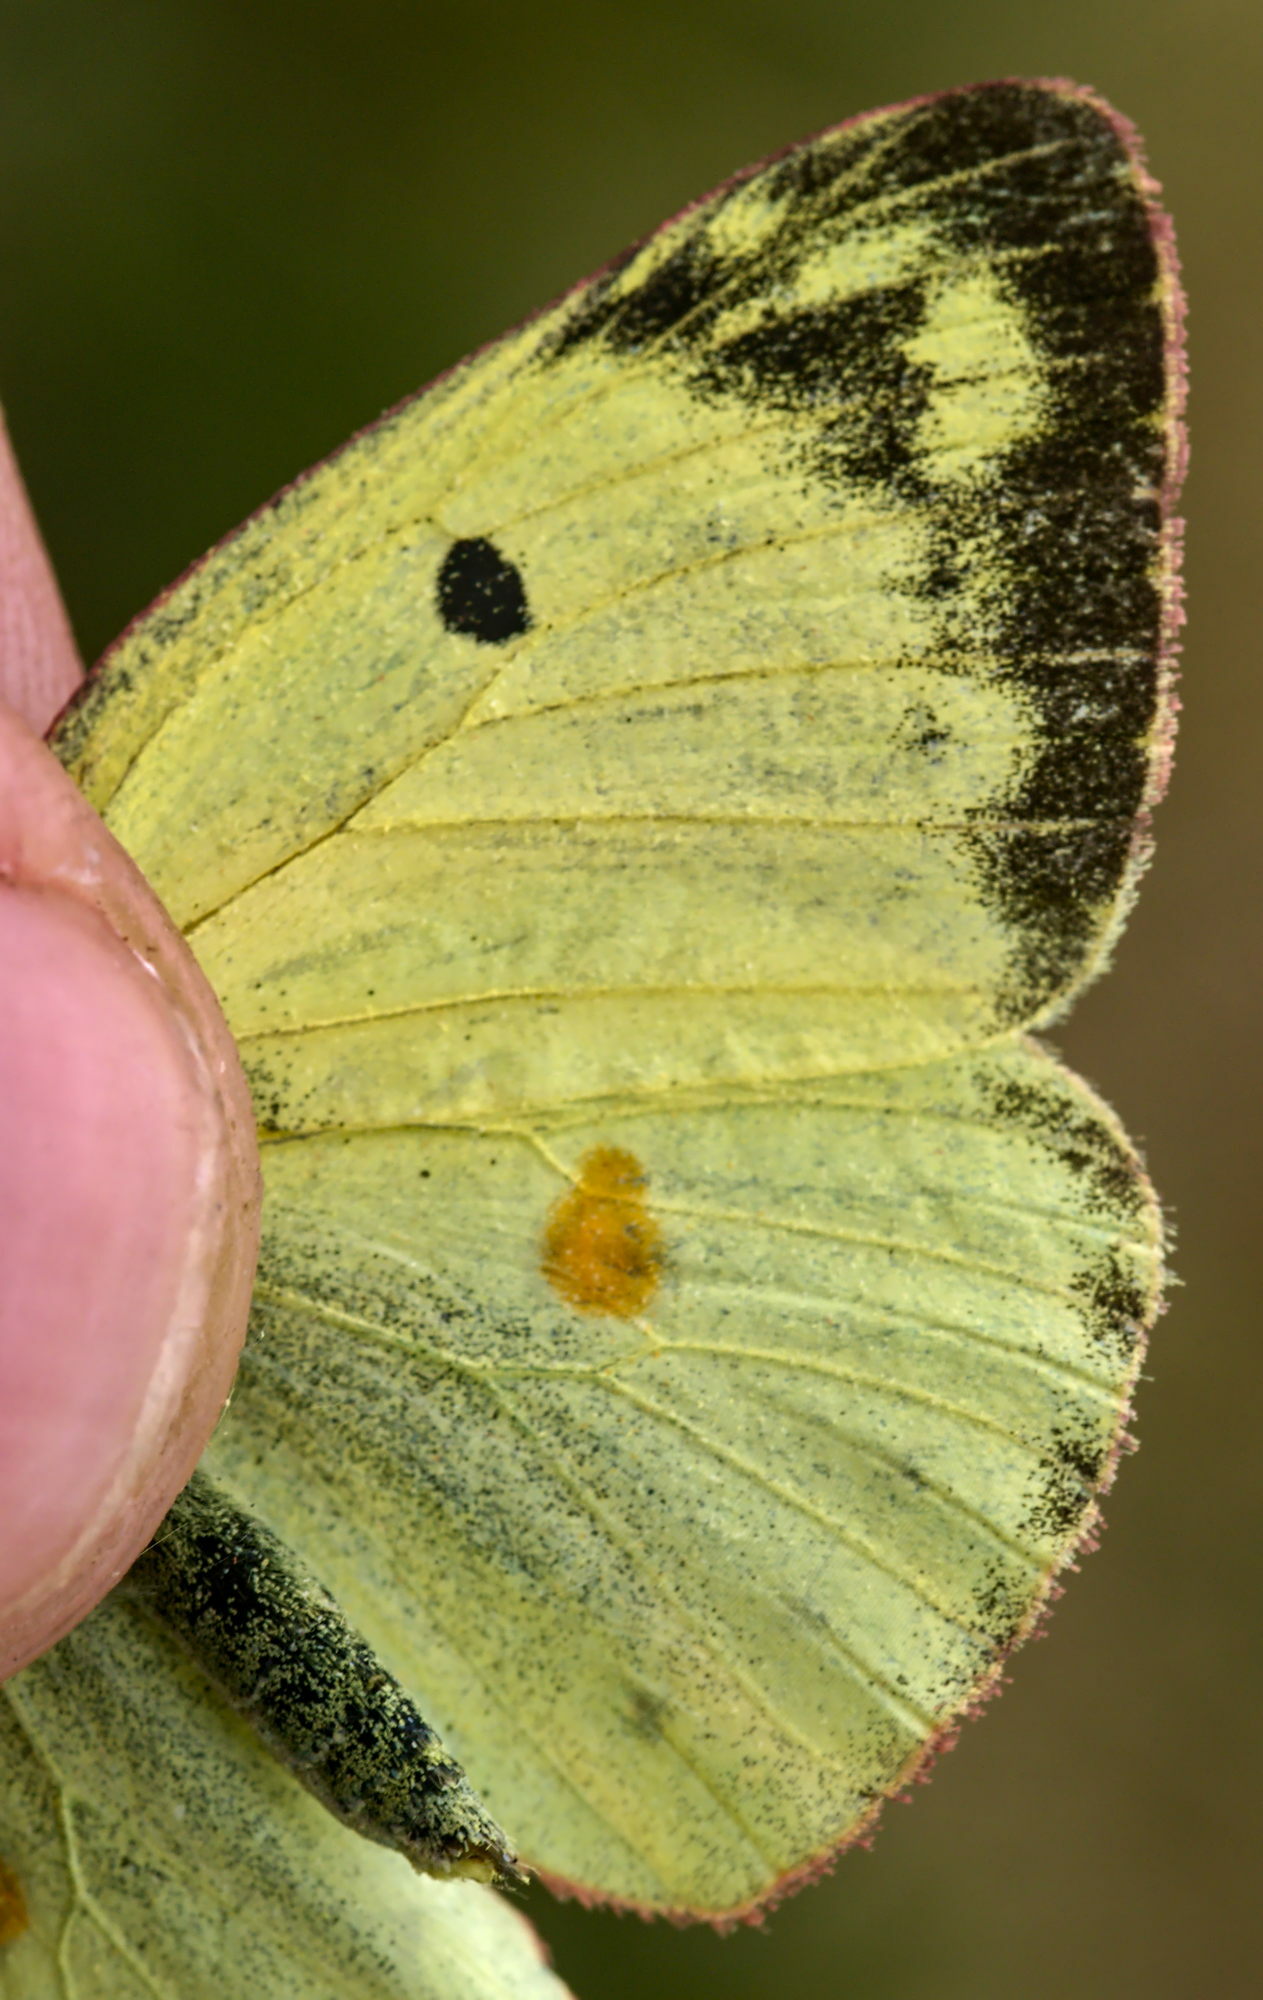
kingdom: Animalia
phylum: Arthropoda
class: Insecta
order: Lepidoptera
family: Pieridae
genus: Colias
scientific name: Colias alfacariensis
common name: Berger's clouded yellow
